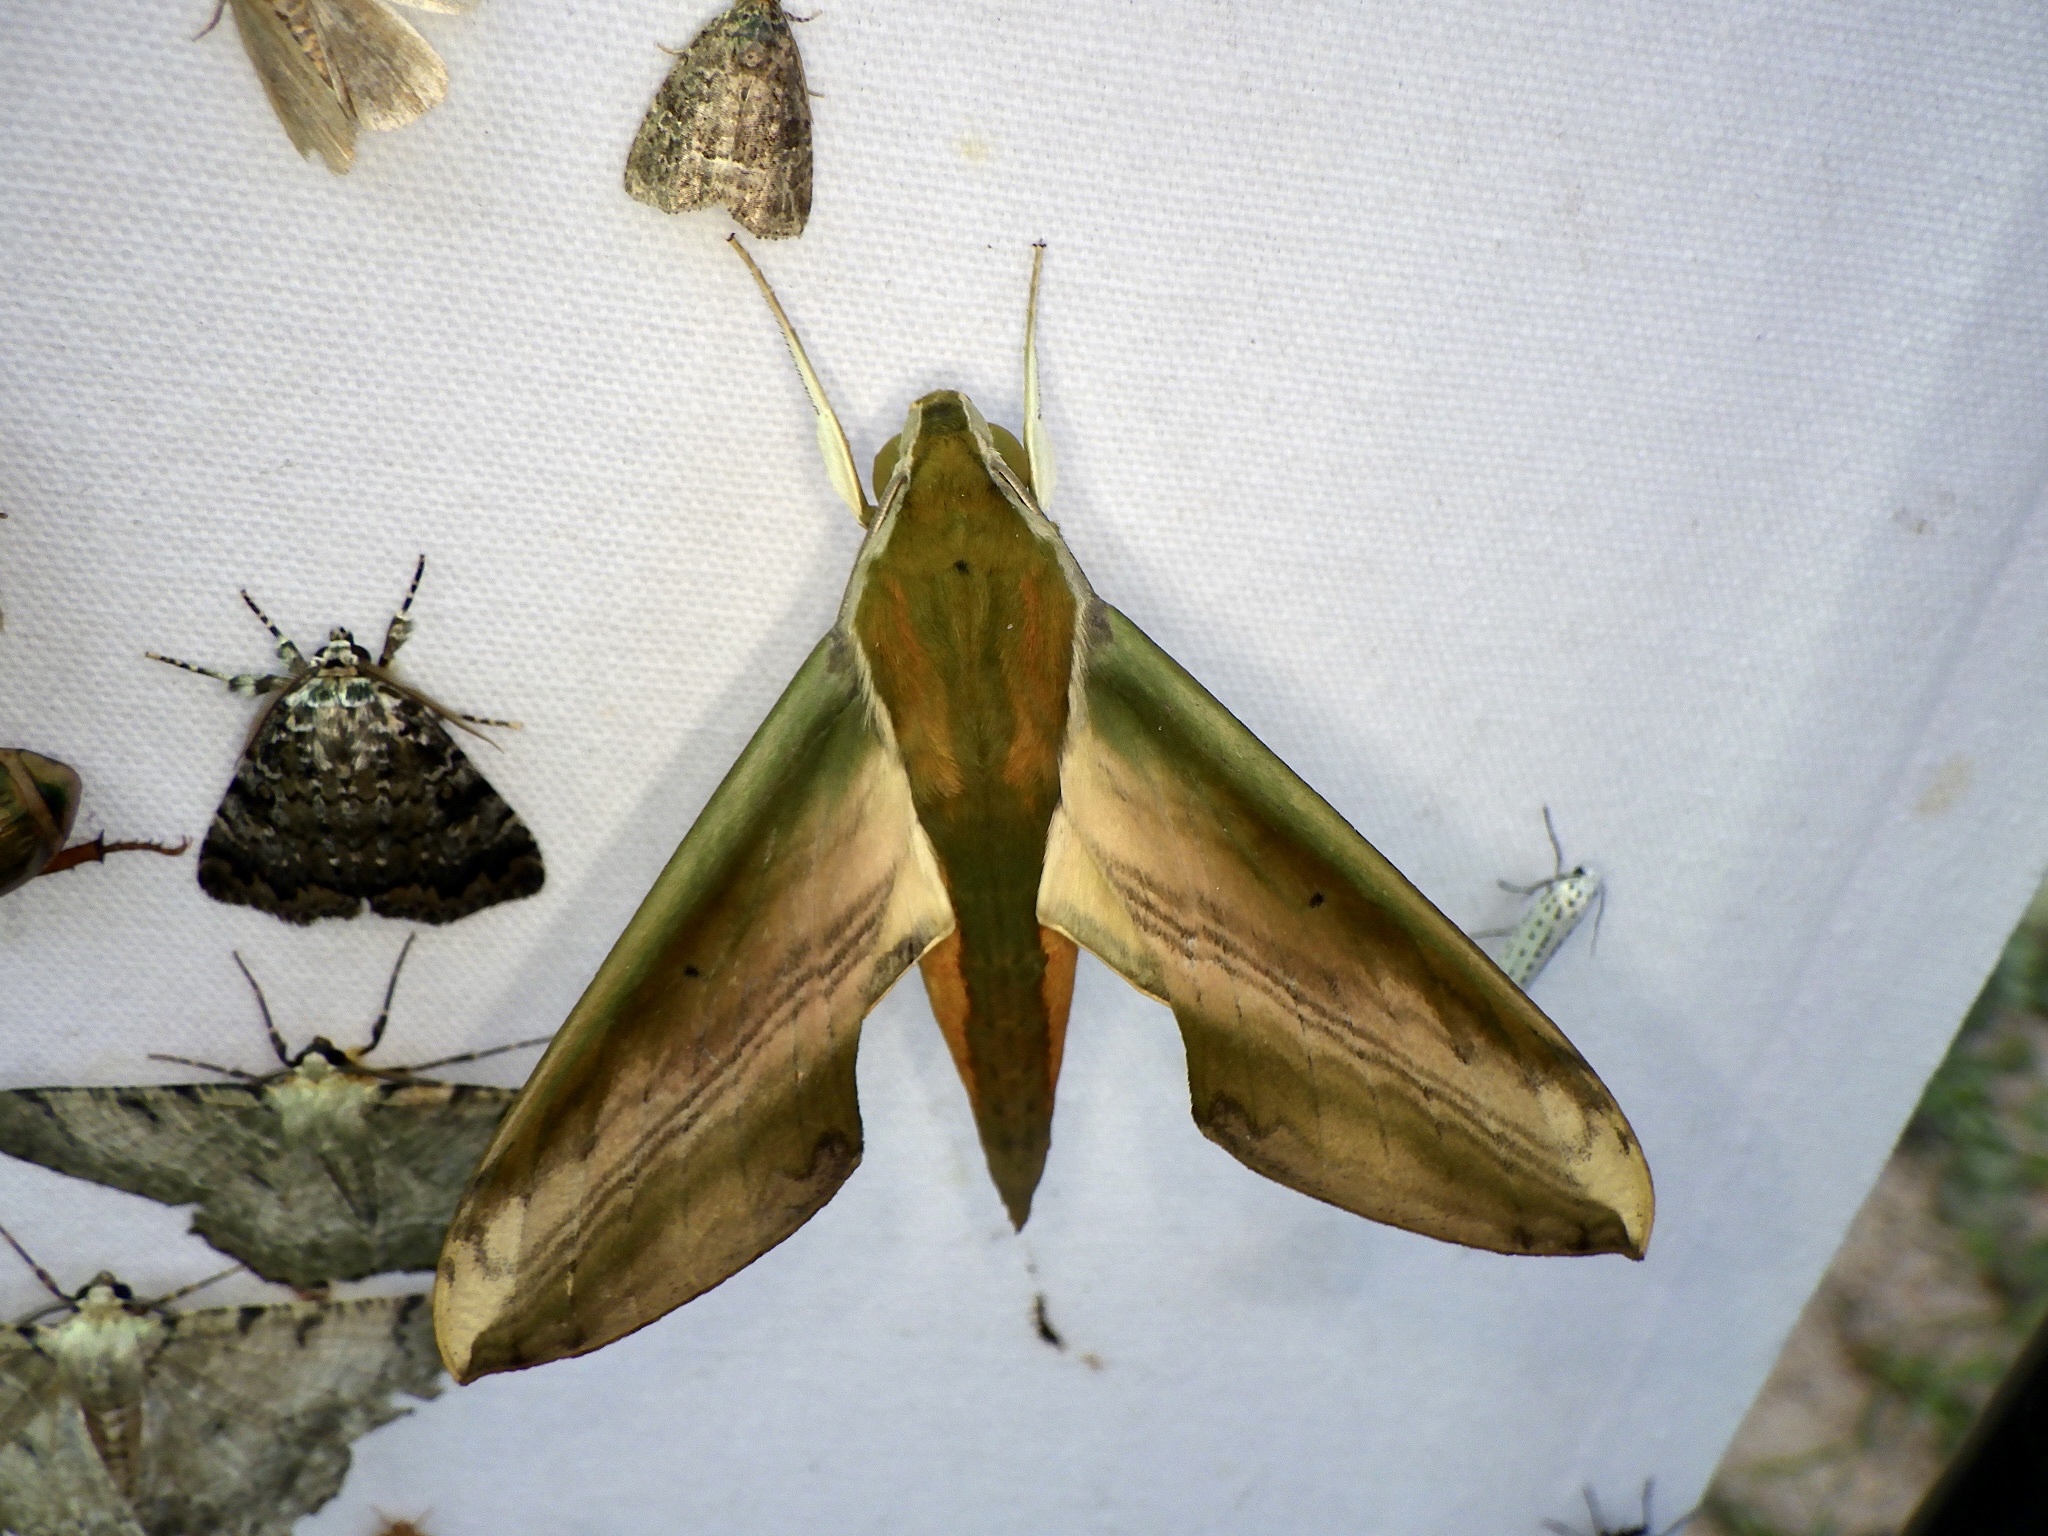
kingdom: Animalia
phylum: Arthropoda
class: Insecta
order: Lepidoptera
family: Sphingidae
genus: Theretra
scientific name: Theretra nessus
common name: Yam hawk moth
